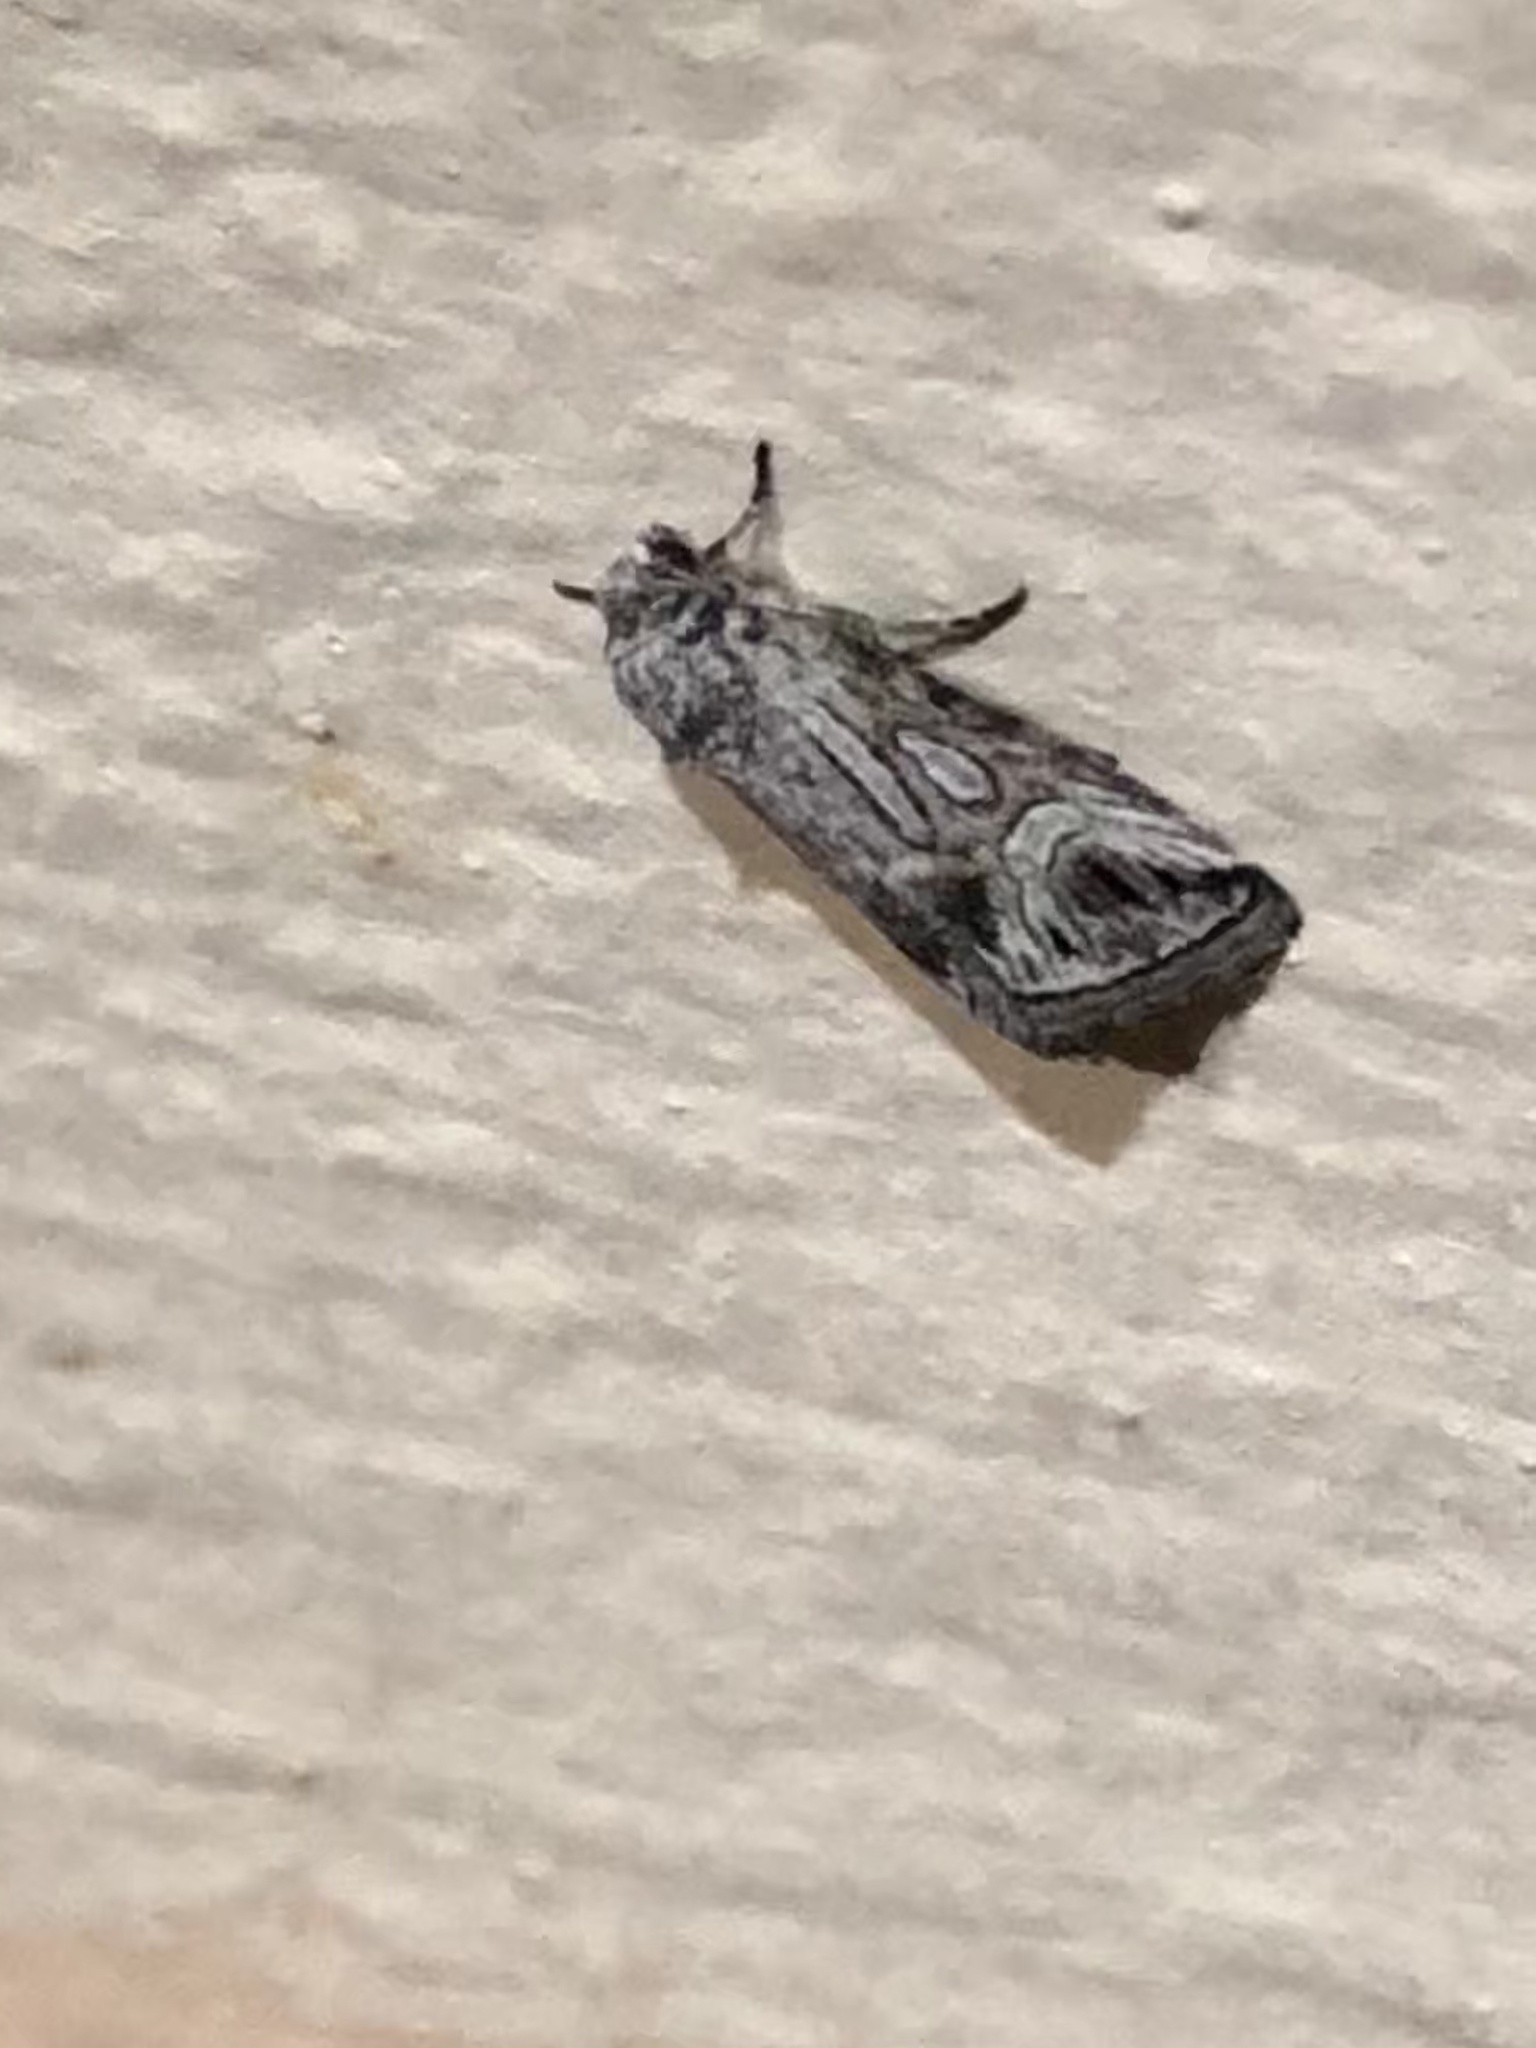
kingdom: Animalia
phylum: Arthropoda
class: Insecta
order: Lepidoptera
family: Noctuidae
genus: Sympistis
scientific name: Sympistis amun
